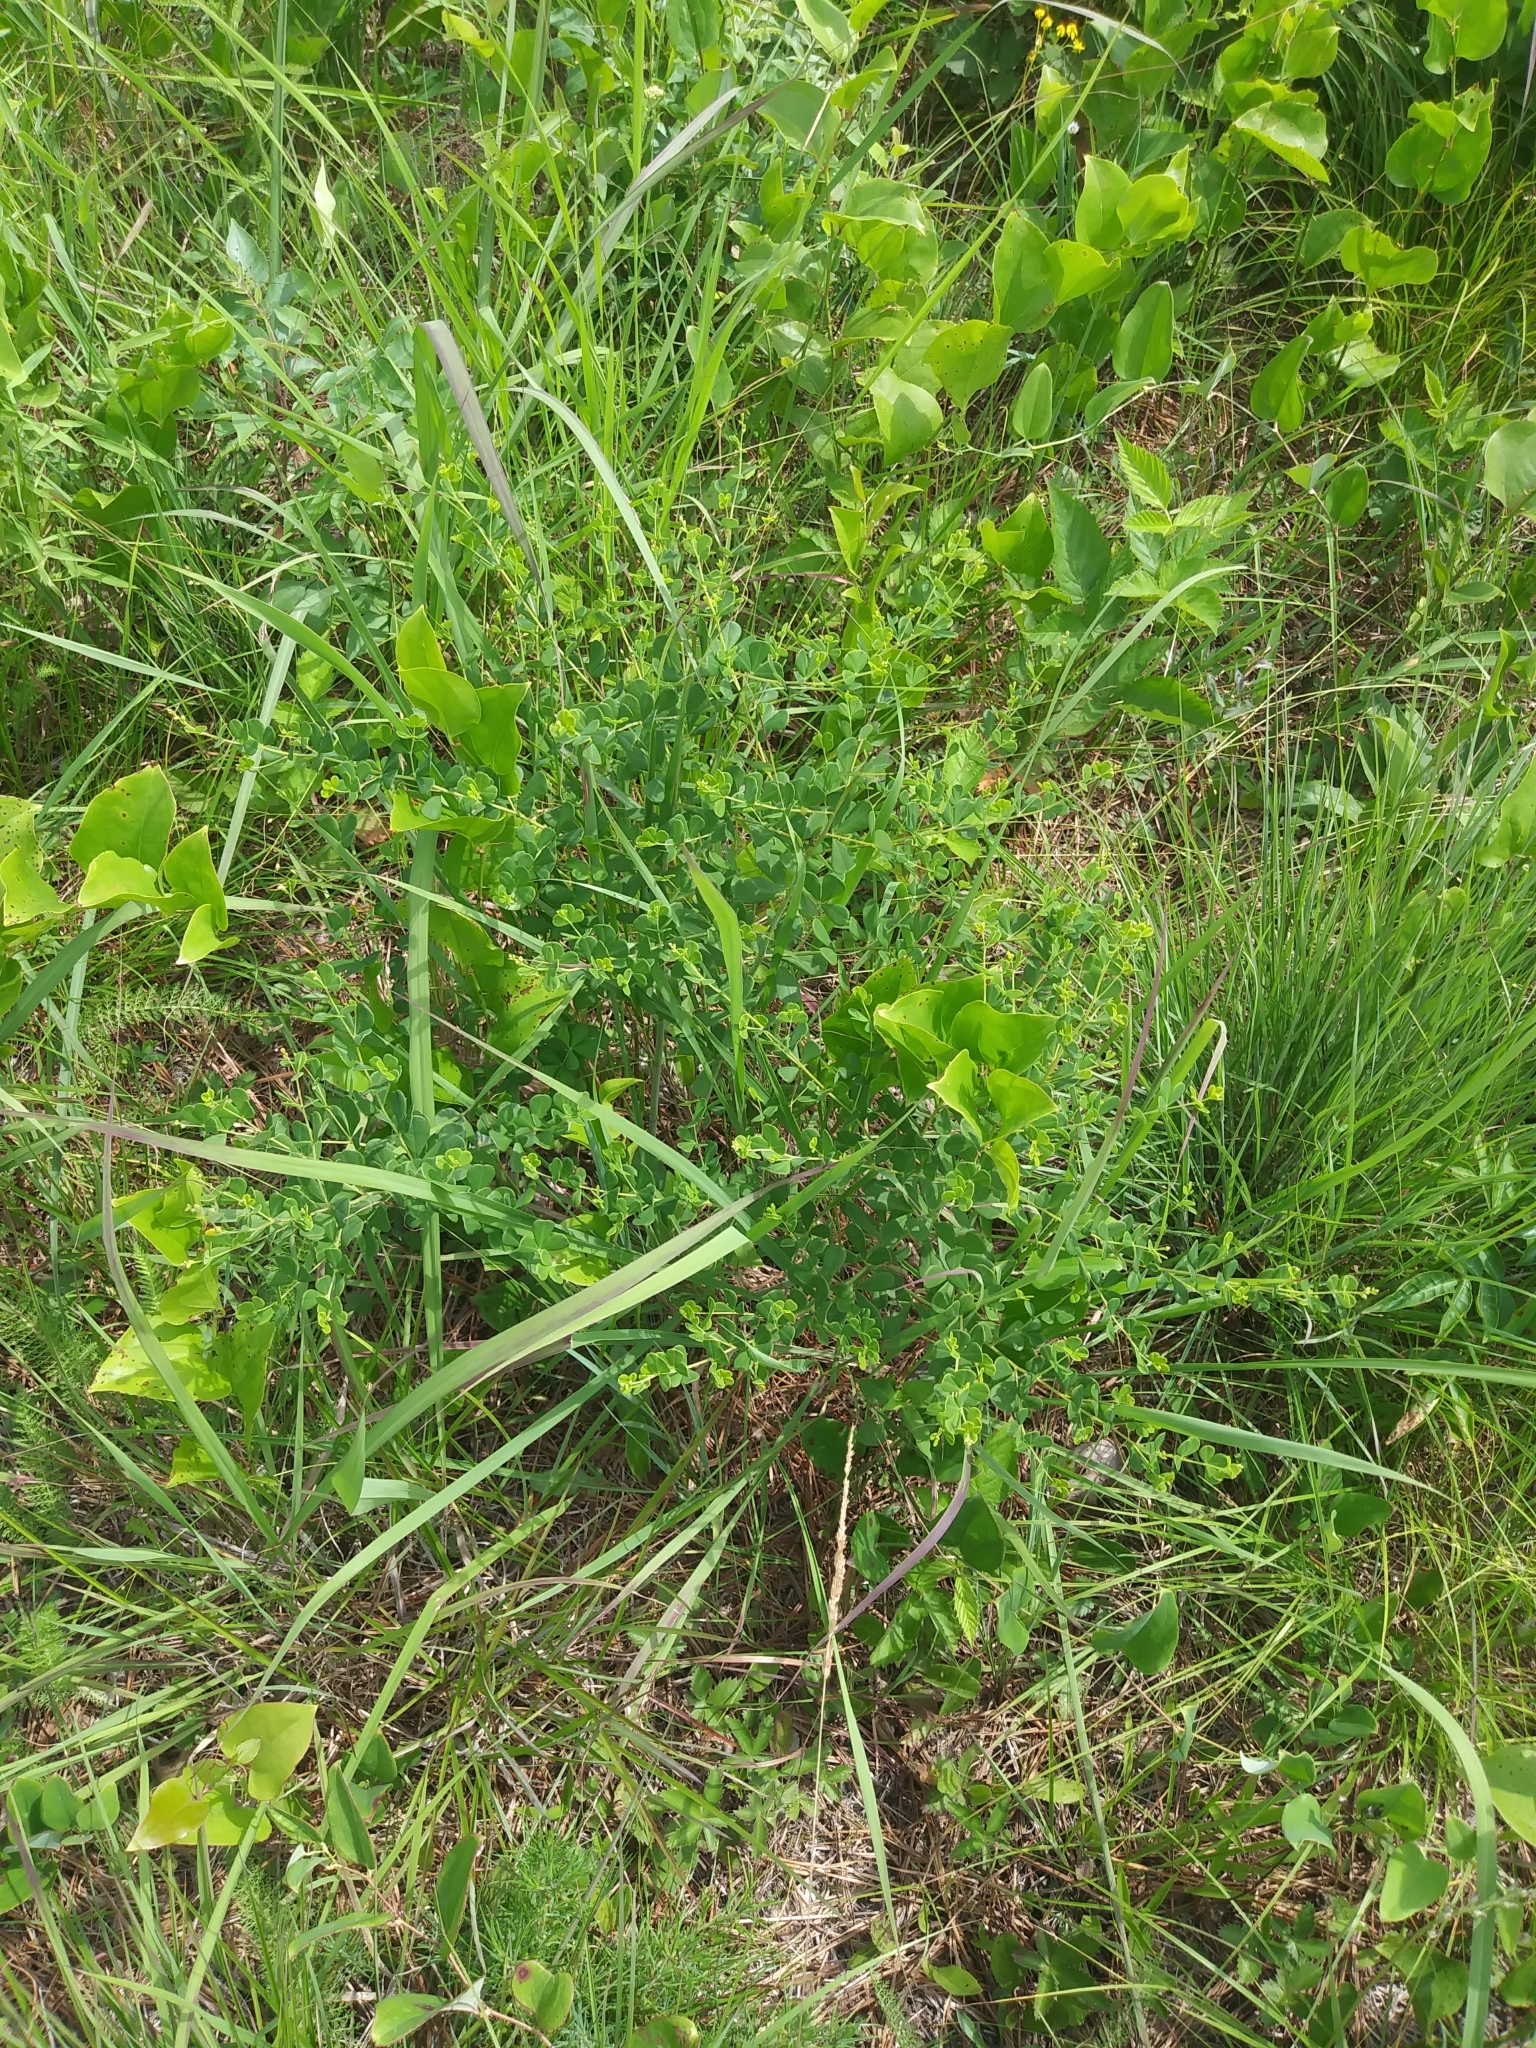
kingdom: Plantae
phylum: Tracheophyta
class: Magnoliopsida
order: Fabales
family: Fabaceae
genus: Baptisia
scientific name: Baptisia tinctoria
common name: Wild indigo
